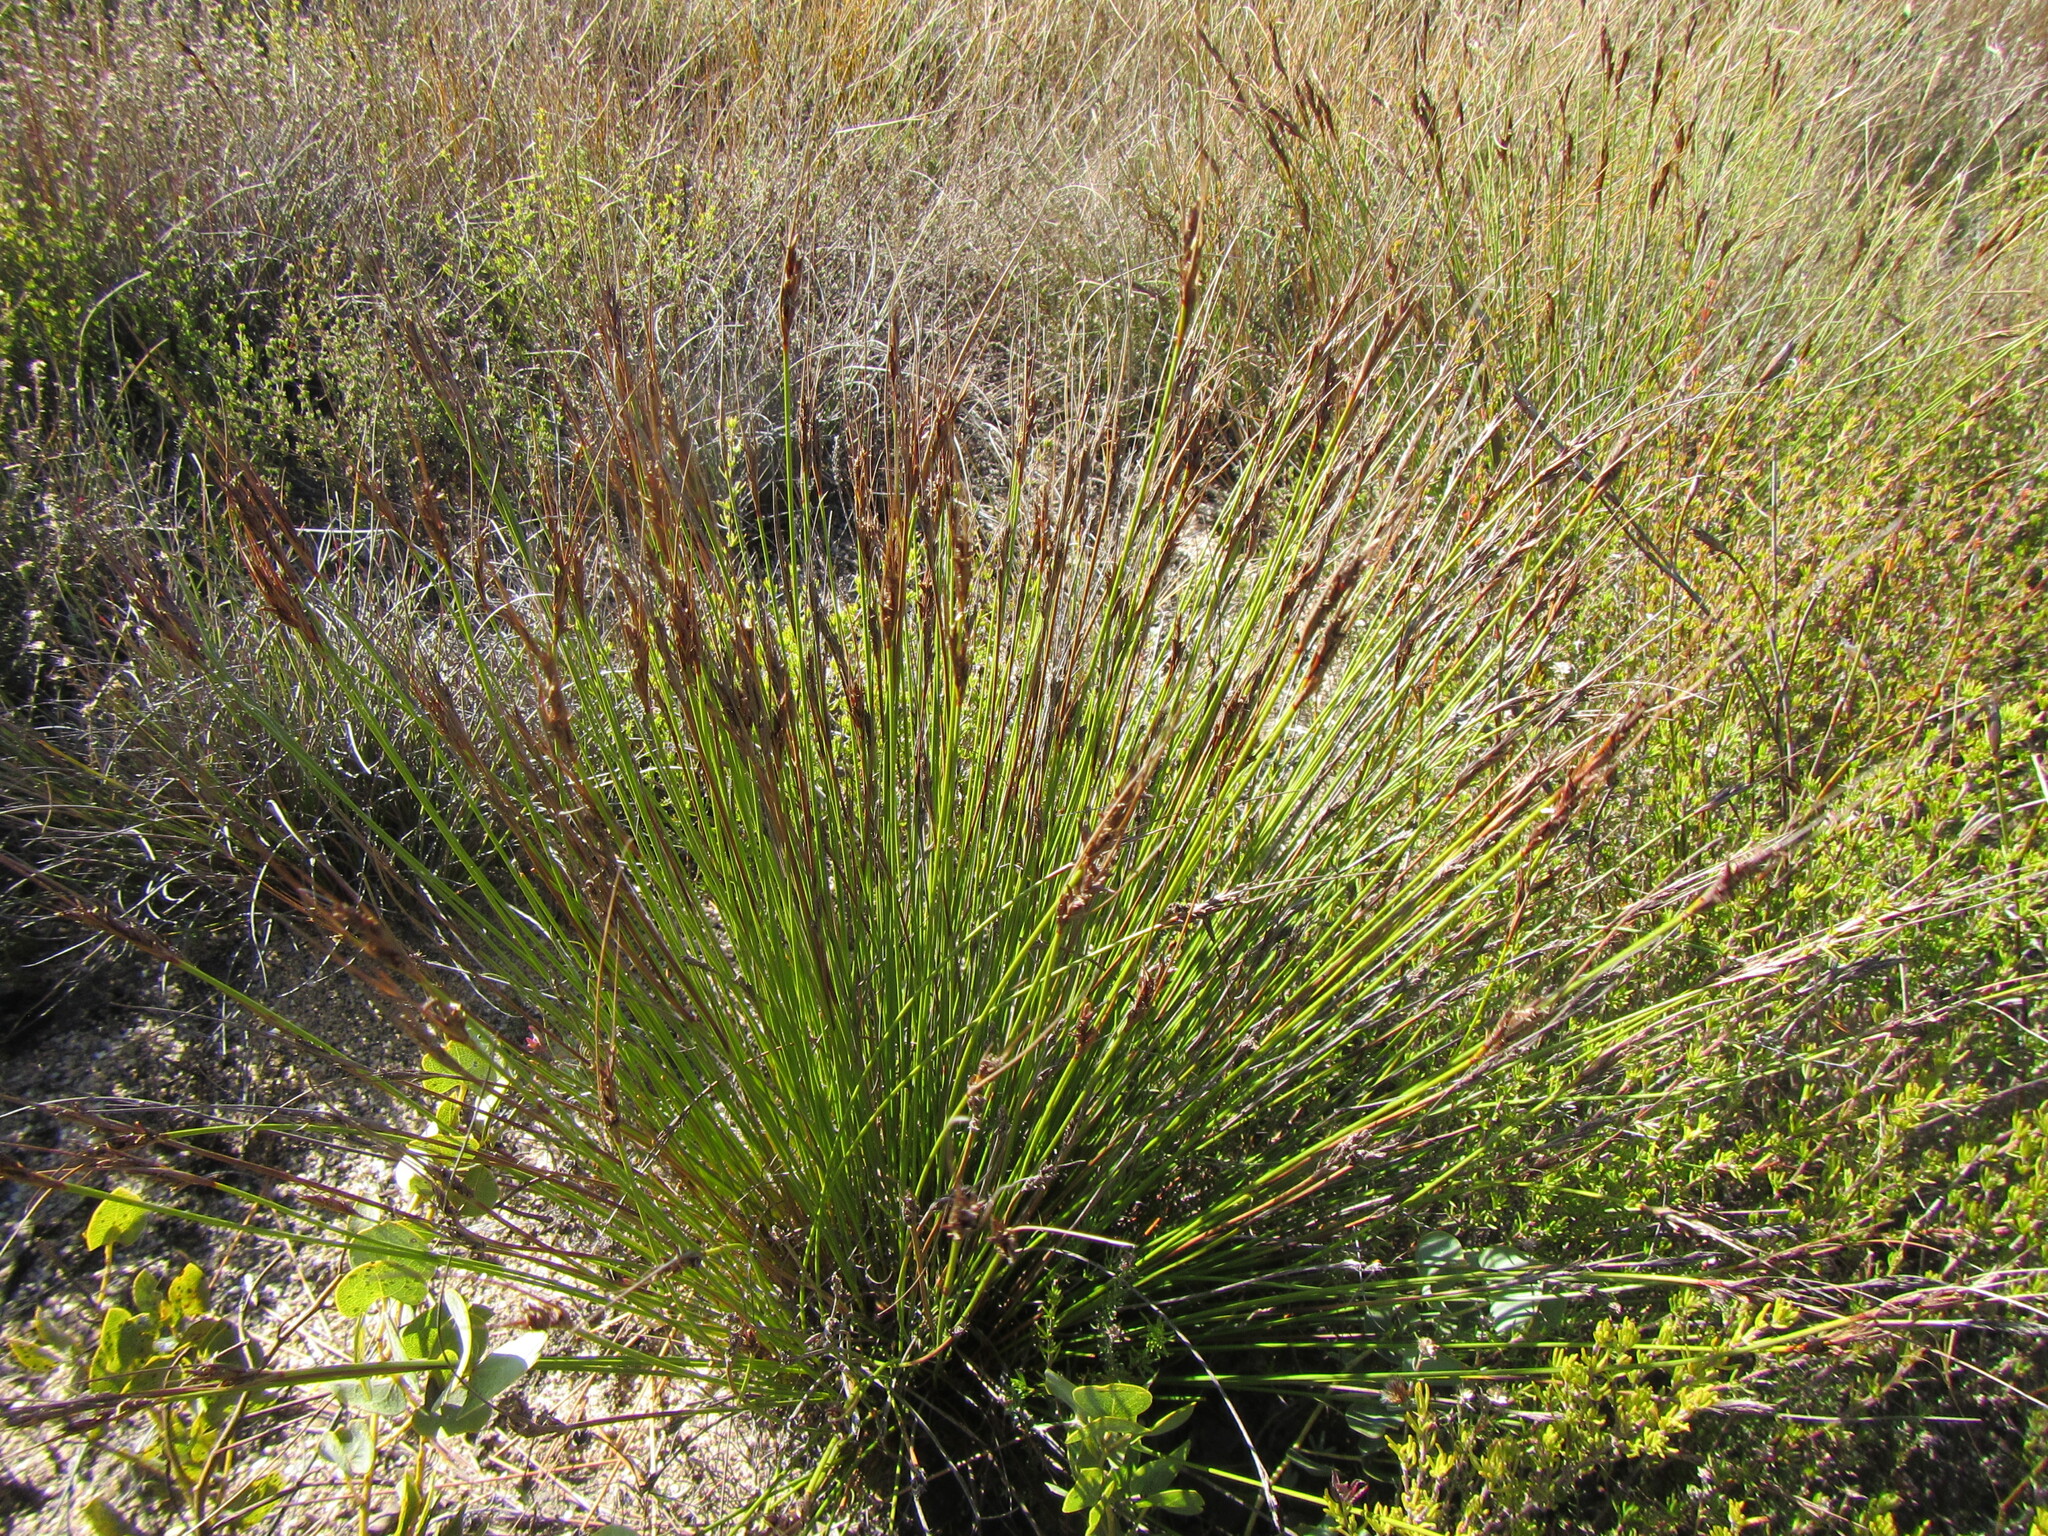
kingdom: Plantae
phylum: Tracheophyta
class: Liliopsida
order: Poales
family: Cyperaceae
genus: Schoenus
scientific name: Schoenus pseudoloreus
